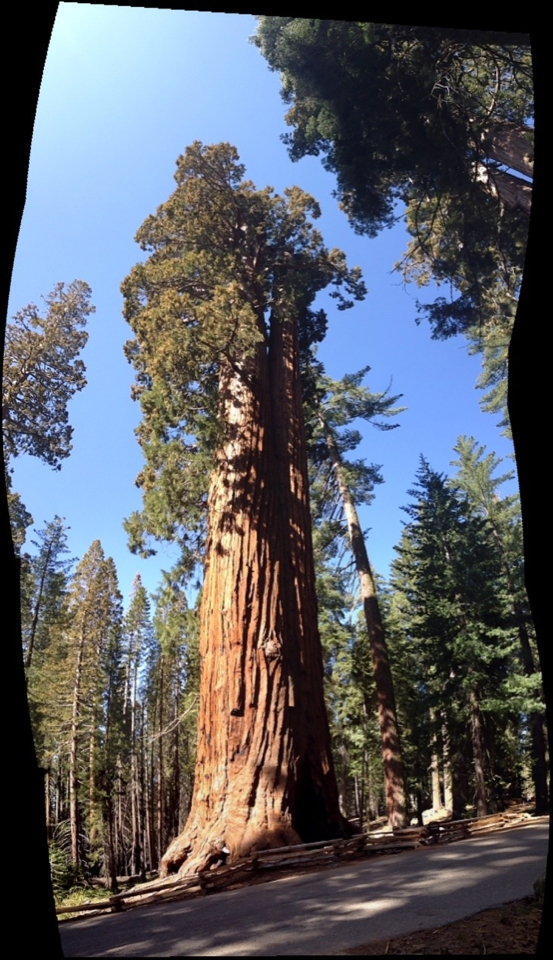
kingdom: Plantae
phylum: Tracheophyta
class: Pinopsida
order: Pinales
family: Cupressaceae
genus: Sequoiadendron
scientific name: Sequoiadendron giganteum
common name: Wellingtonia
